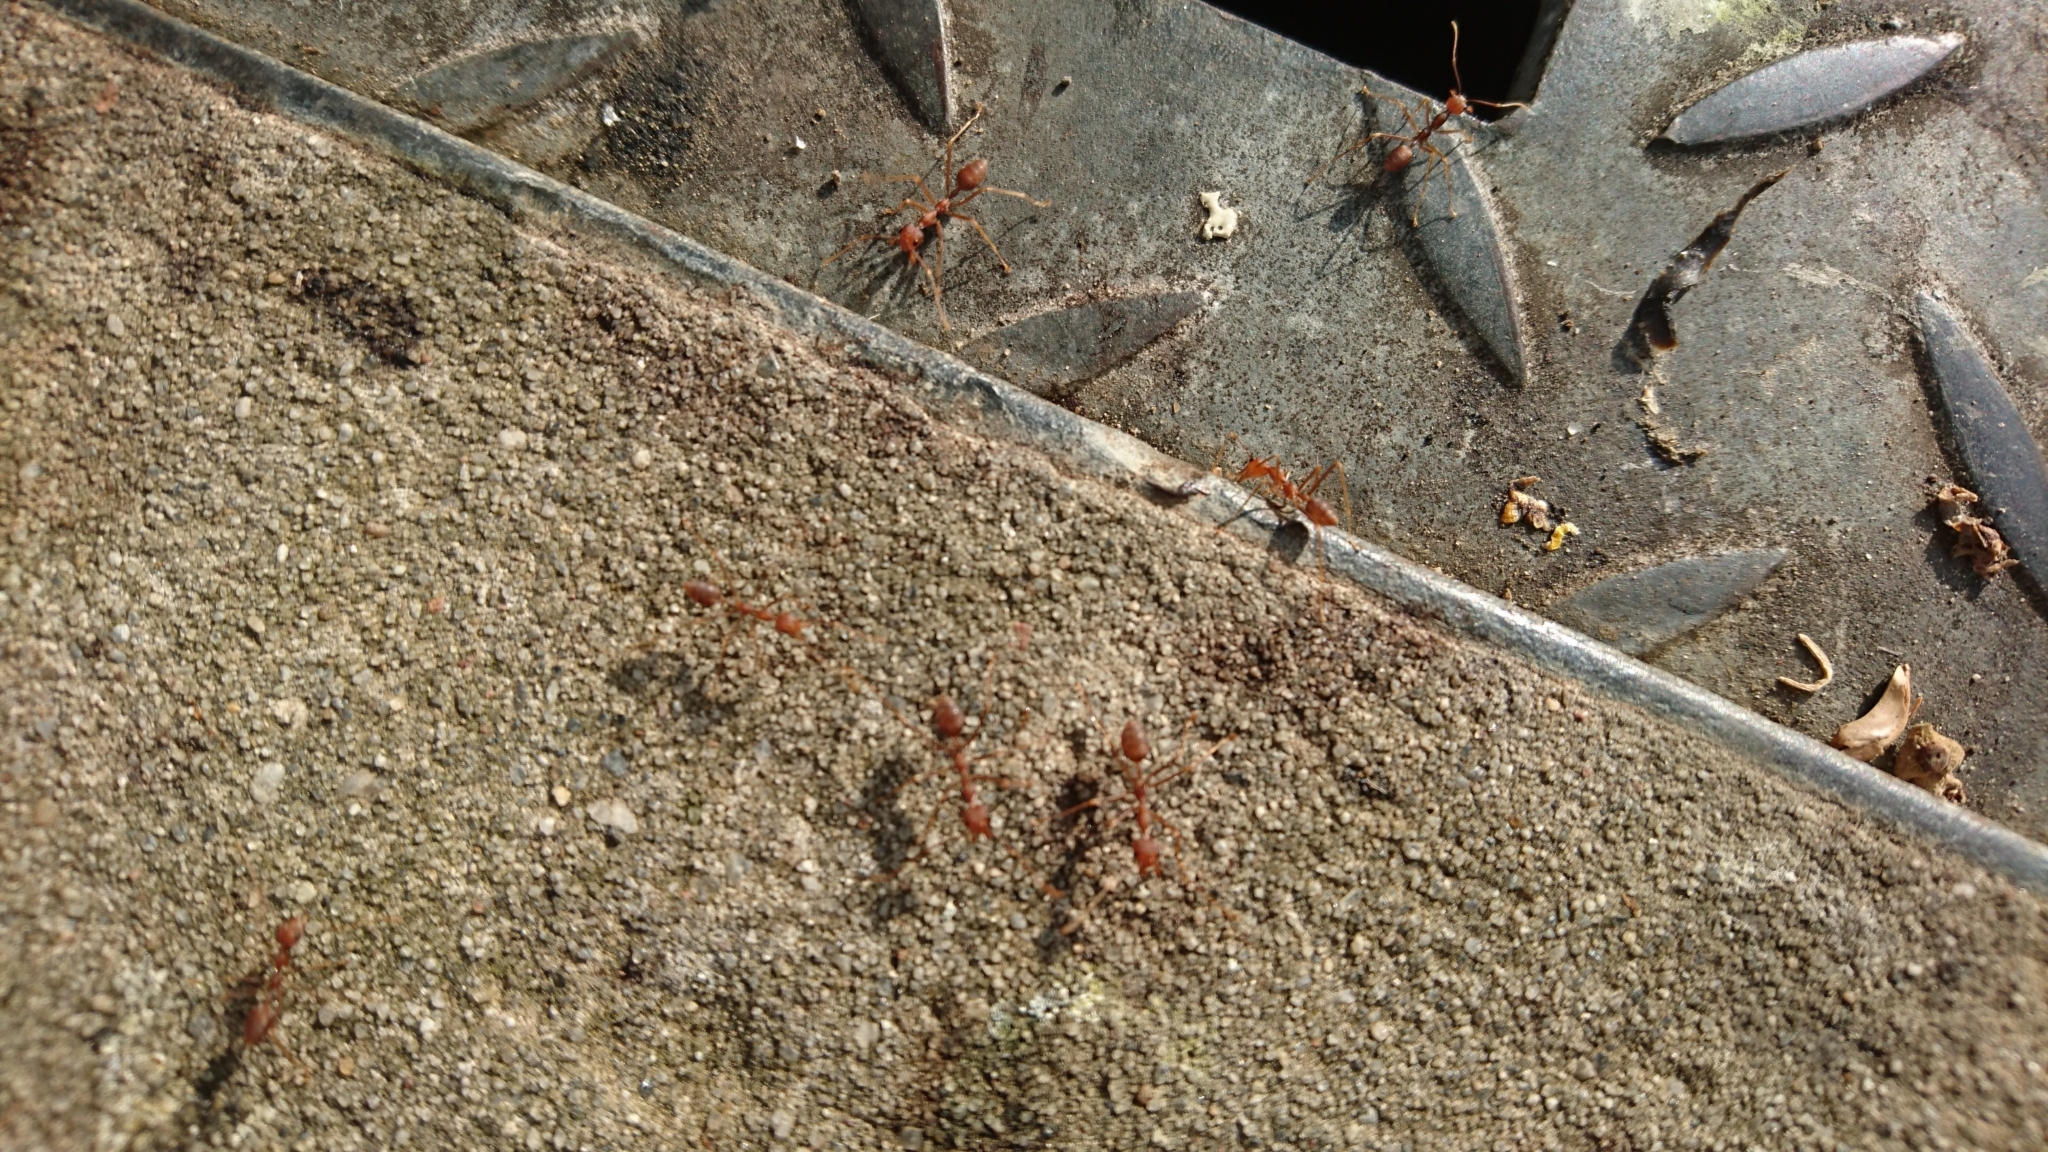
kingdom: Animalia
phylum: Arthropoda
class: Insecta
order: Hymenoptera
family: Formicidae
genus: Oecophylla
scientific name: Oecophylla smaragdina
